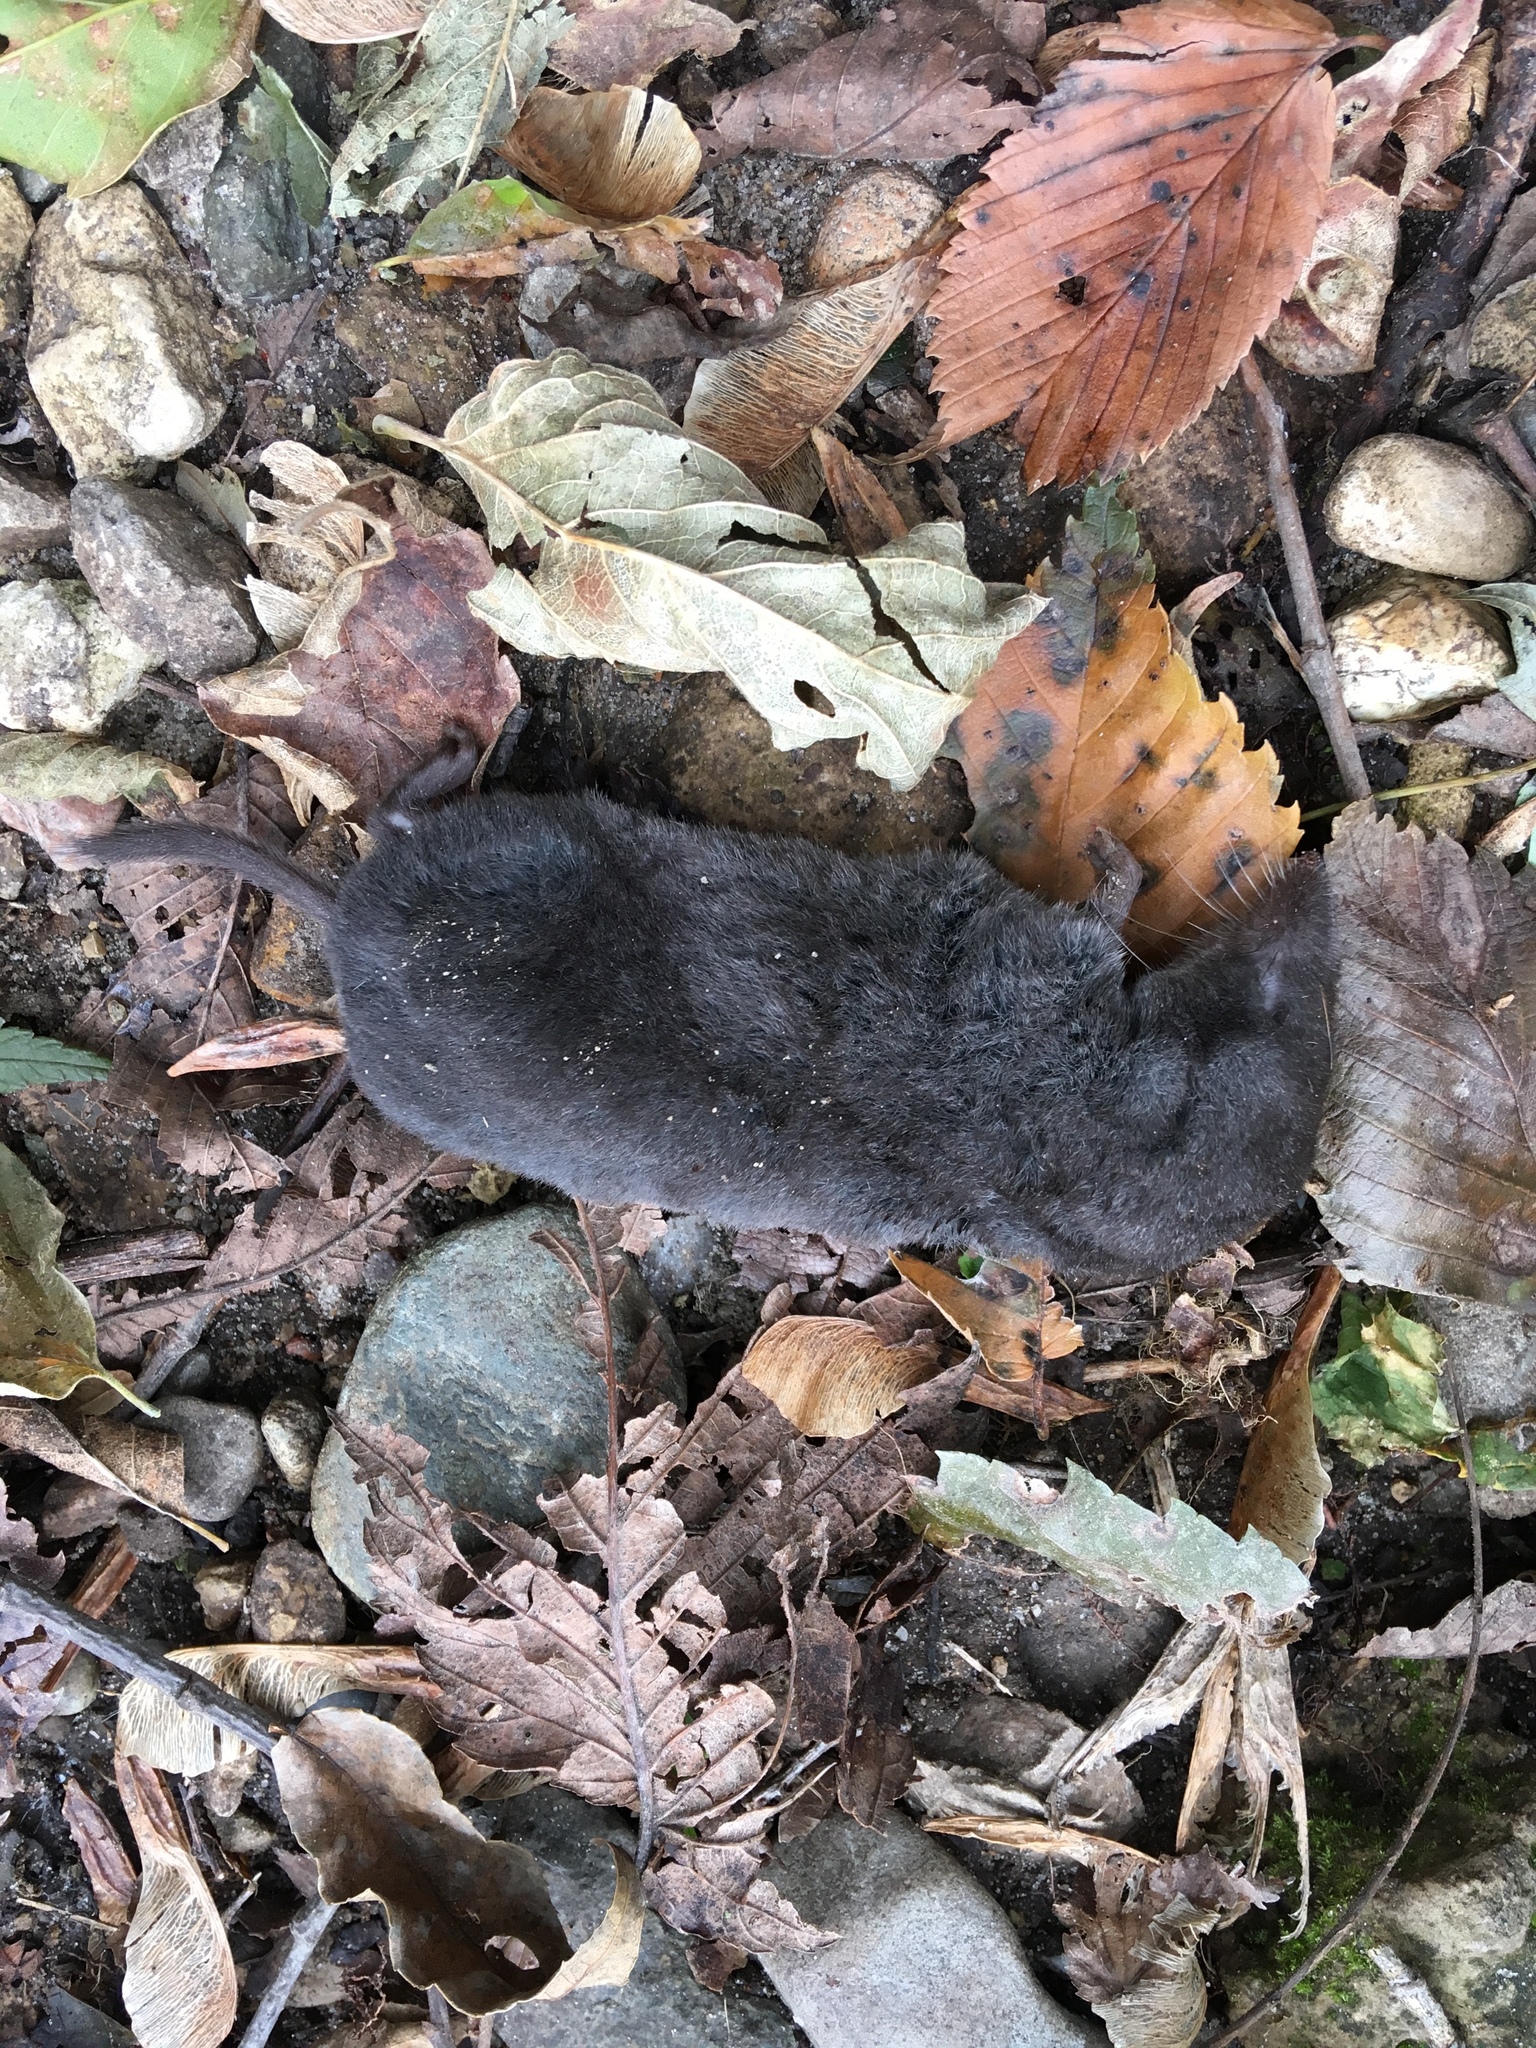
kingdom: Animalia
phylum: Chordata
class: Mammalia
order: Soricomorpha
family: Soricidae
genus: Blarina
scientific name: Blarina brevicauda
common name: Northern short-tailed shrew
